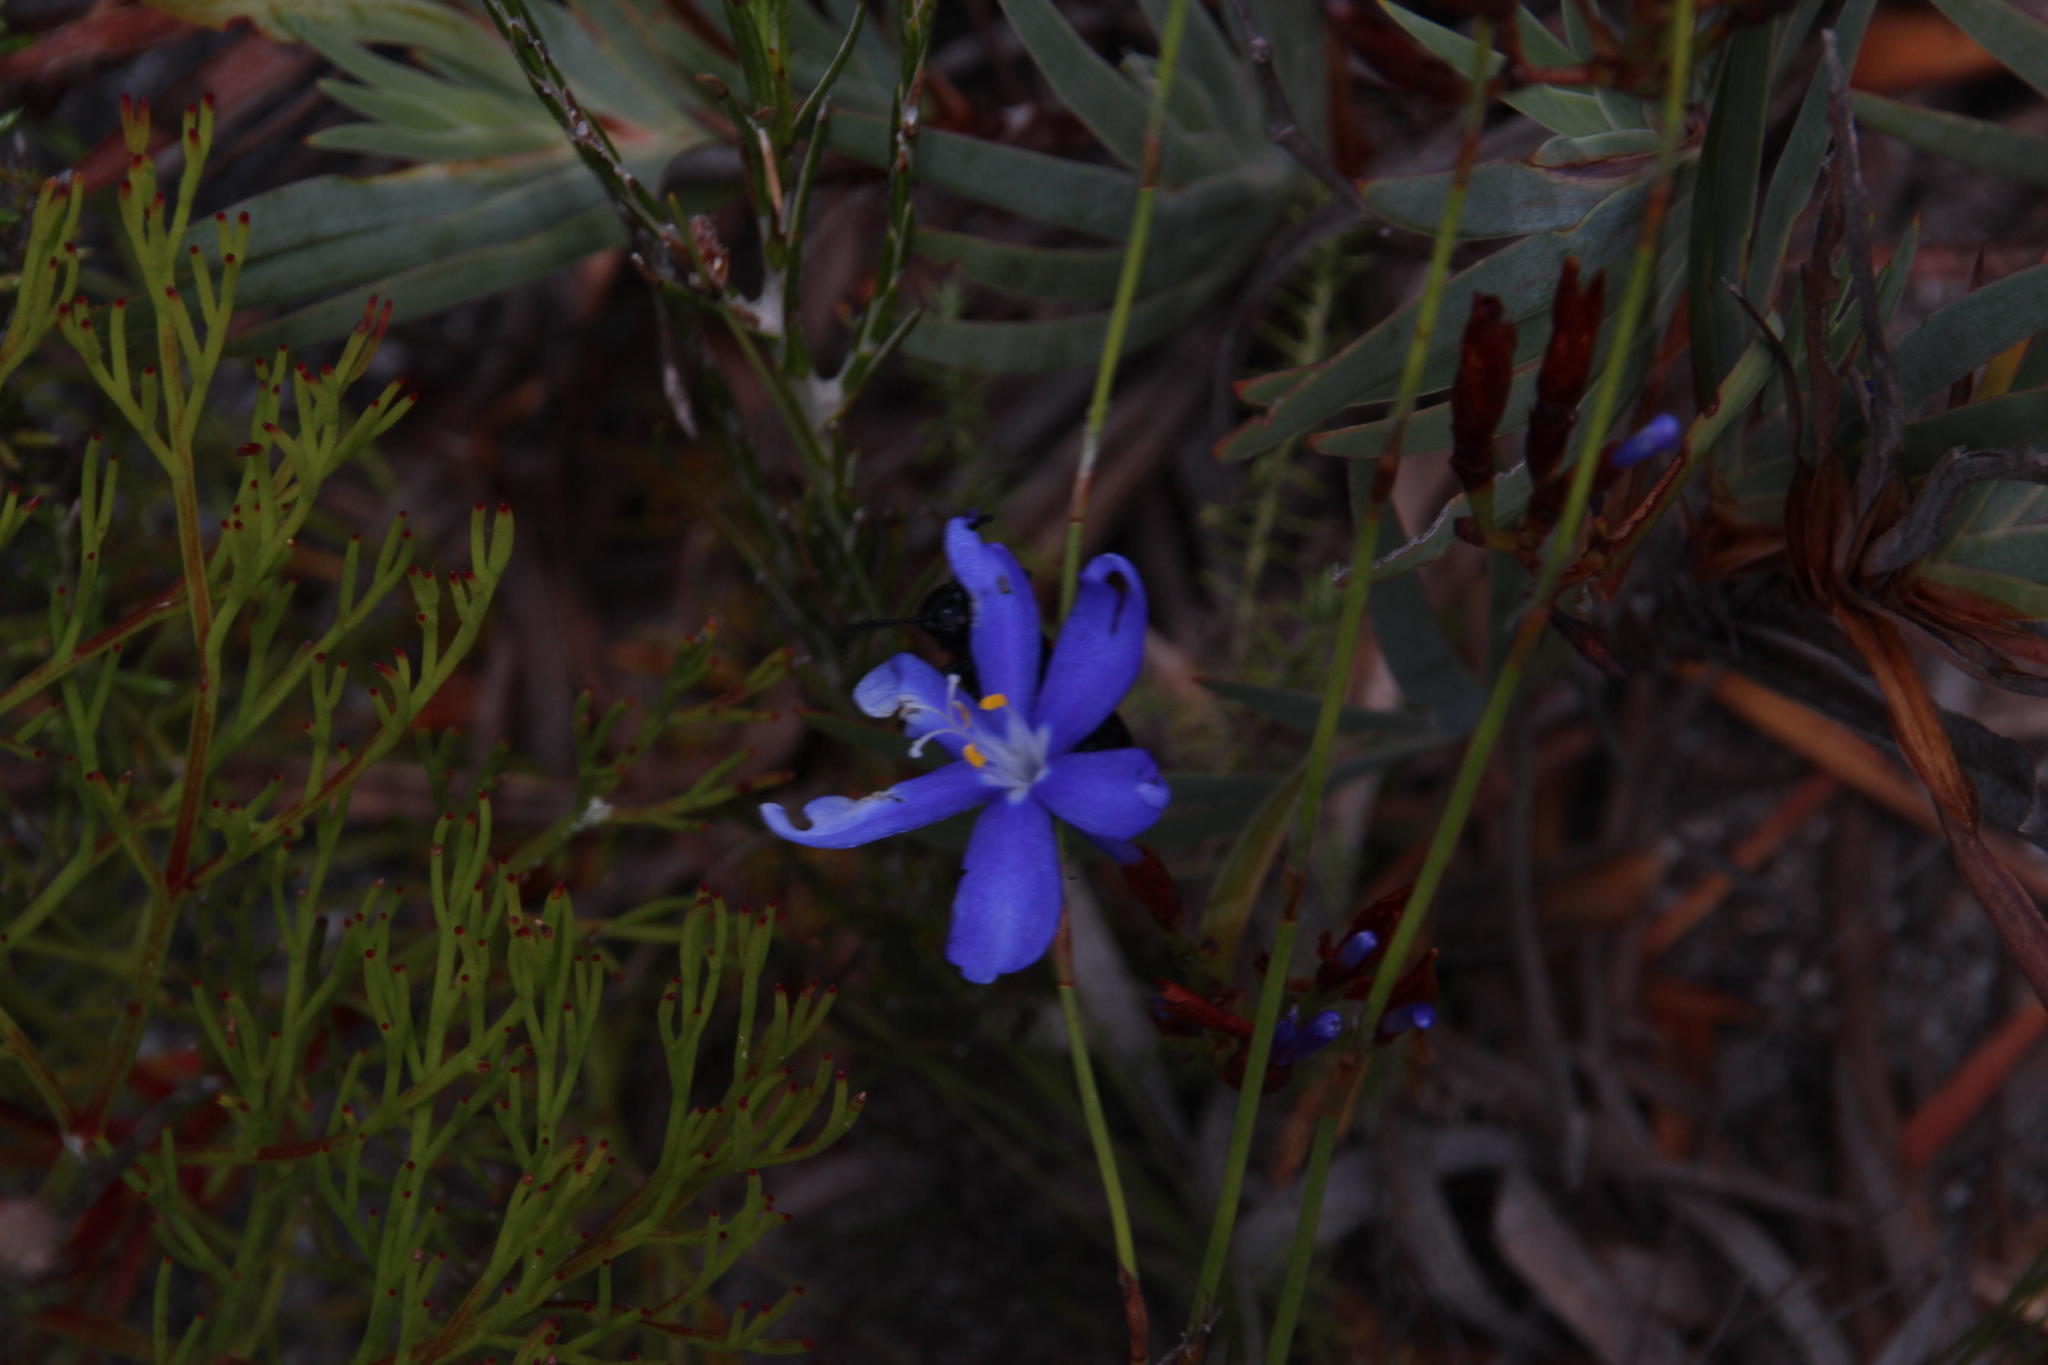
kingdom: Plantae
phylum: Tracheophyta
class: Liliopsida
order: Asparagales
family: Iridaceae
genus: Nivenia
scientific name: Nivenia stokoei
